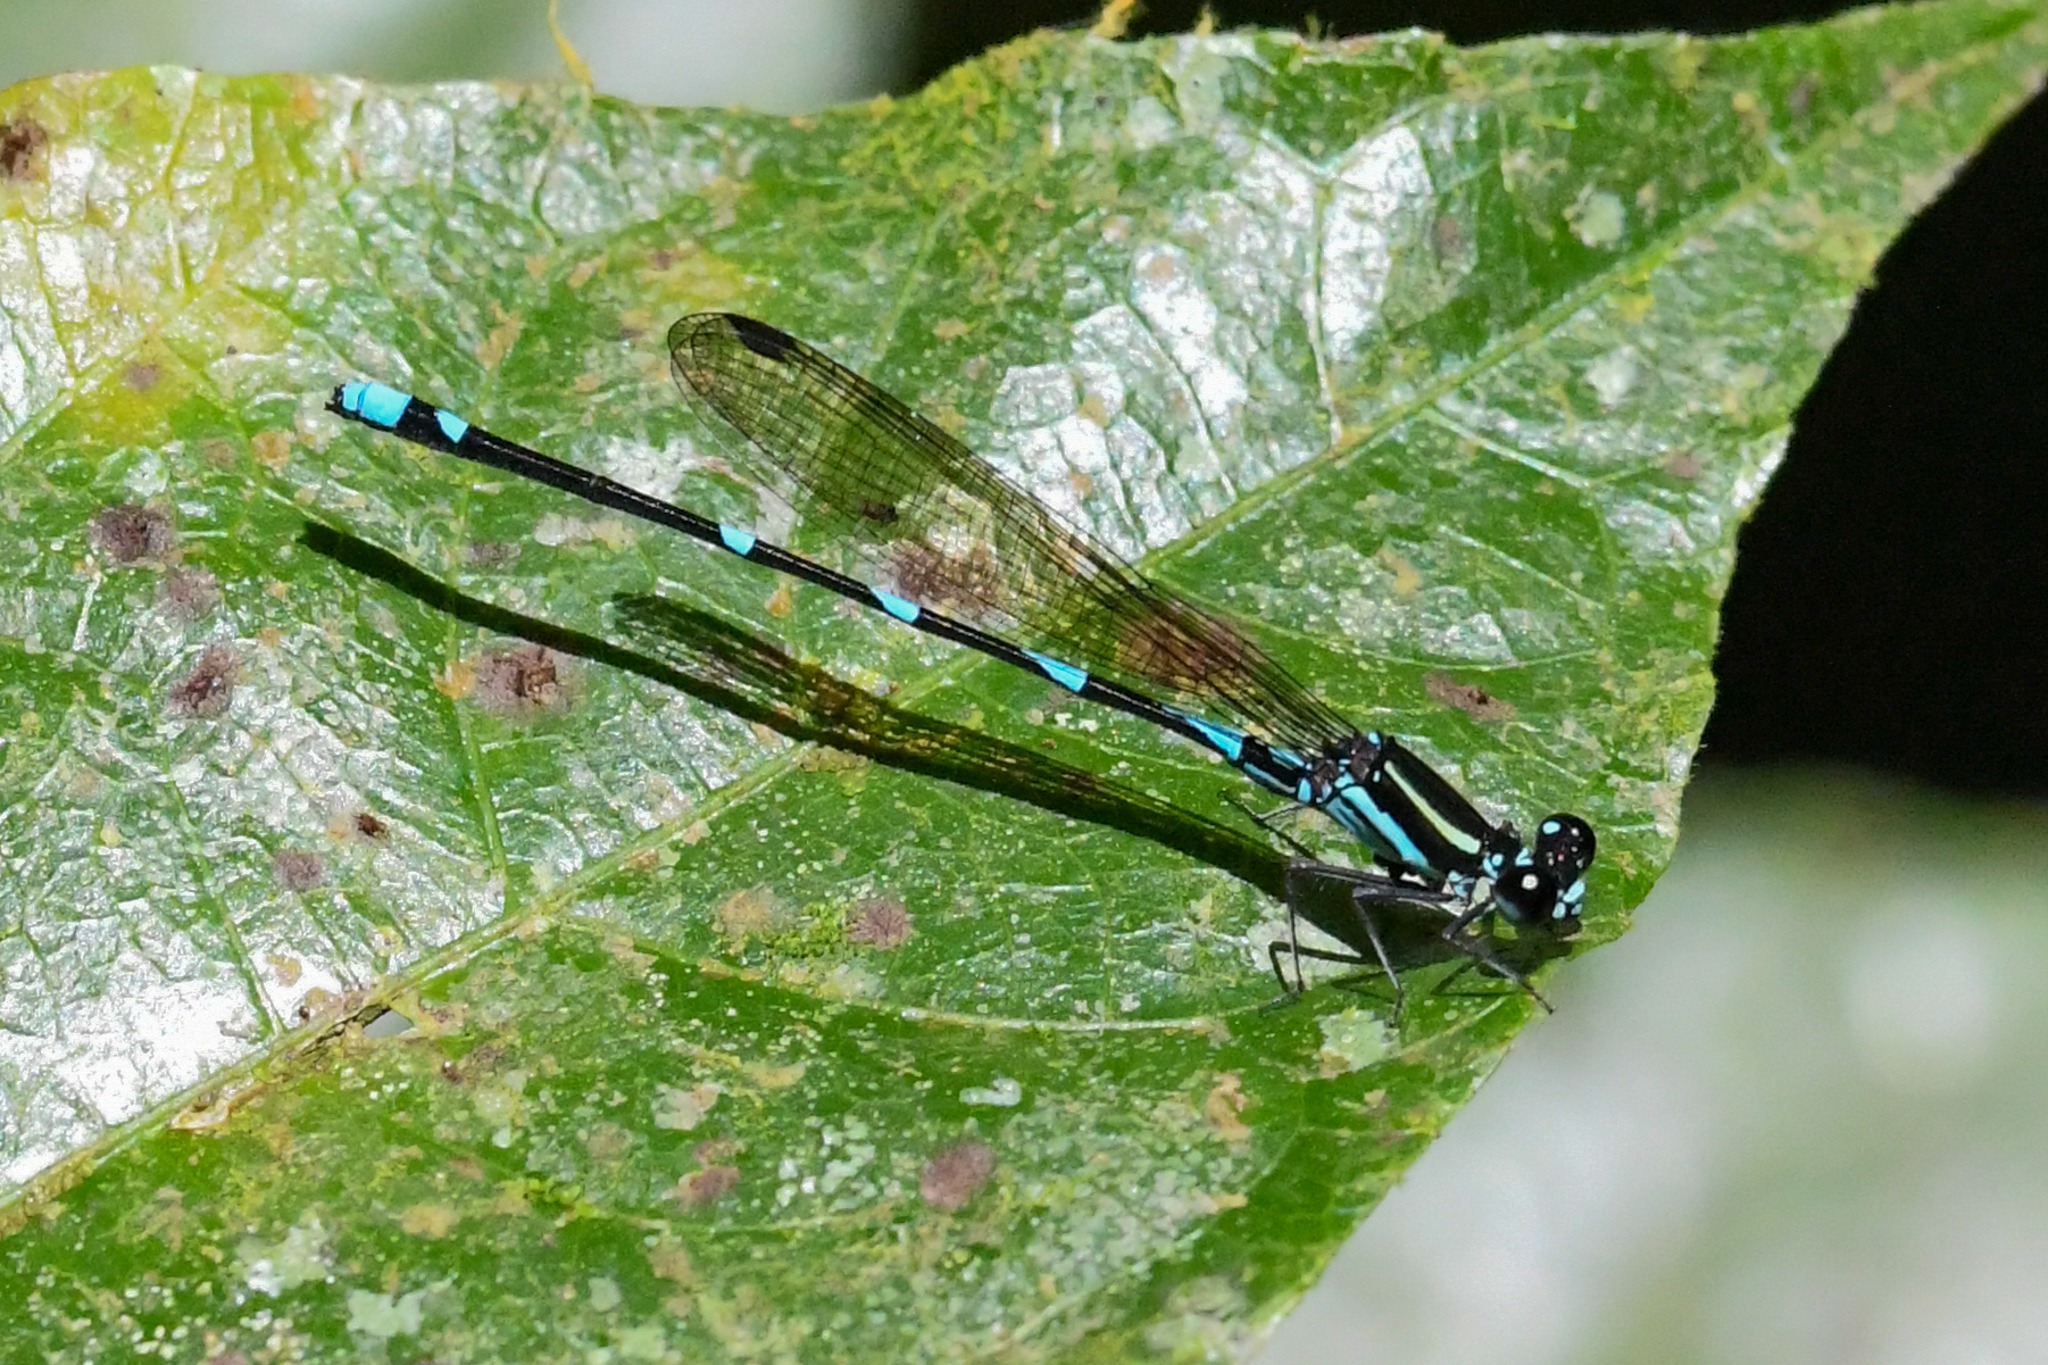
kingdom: Animalia
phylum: Arthropoda
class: Insecta
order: Odonata
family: Coenagrionidae
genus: Argia
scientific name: Argia adamsi
